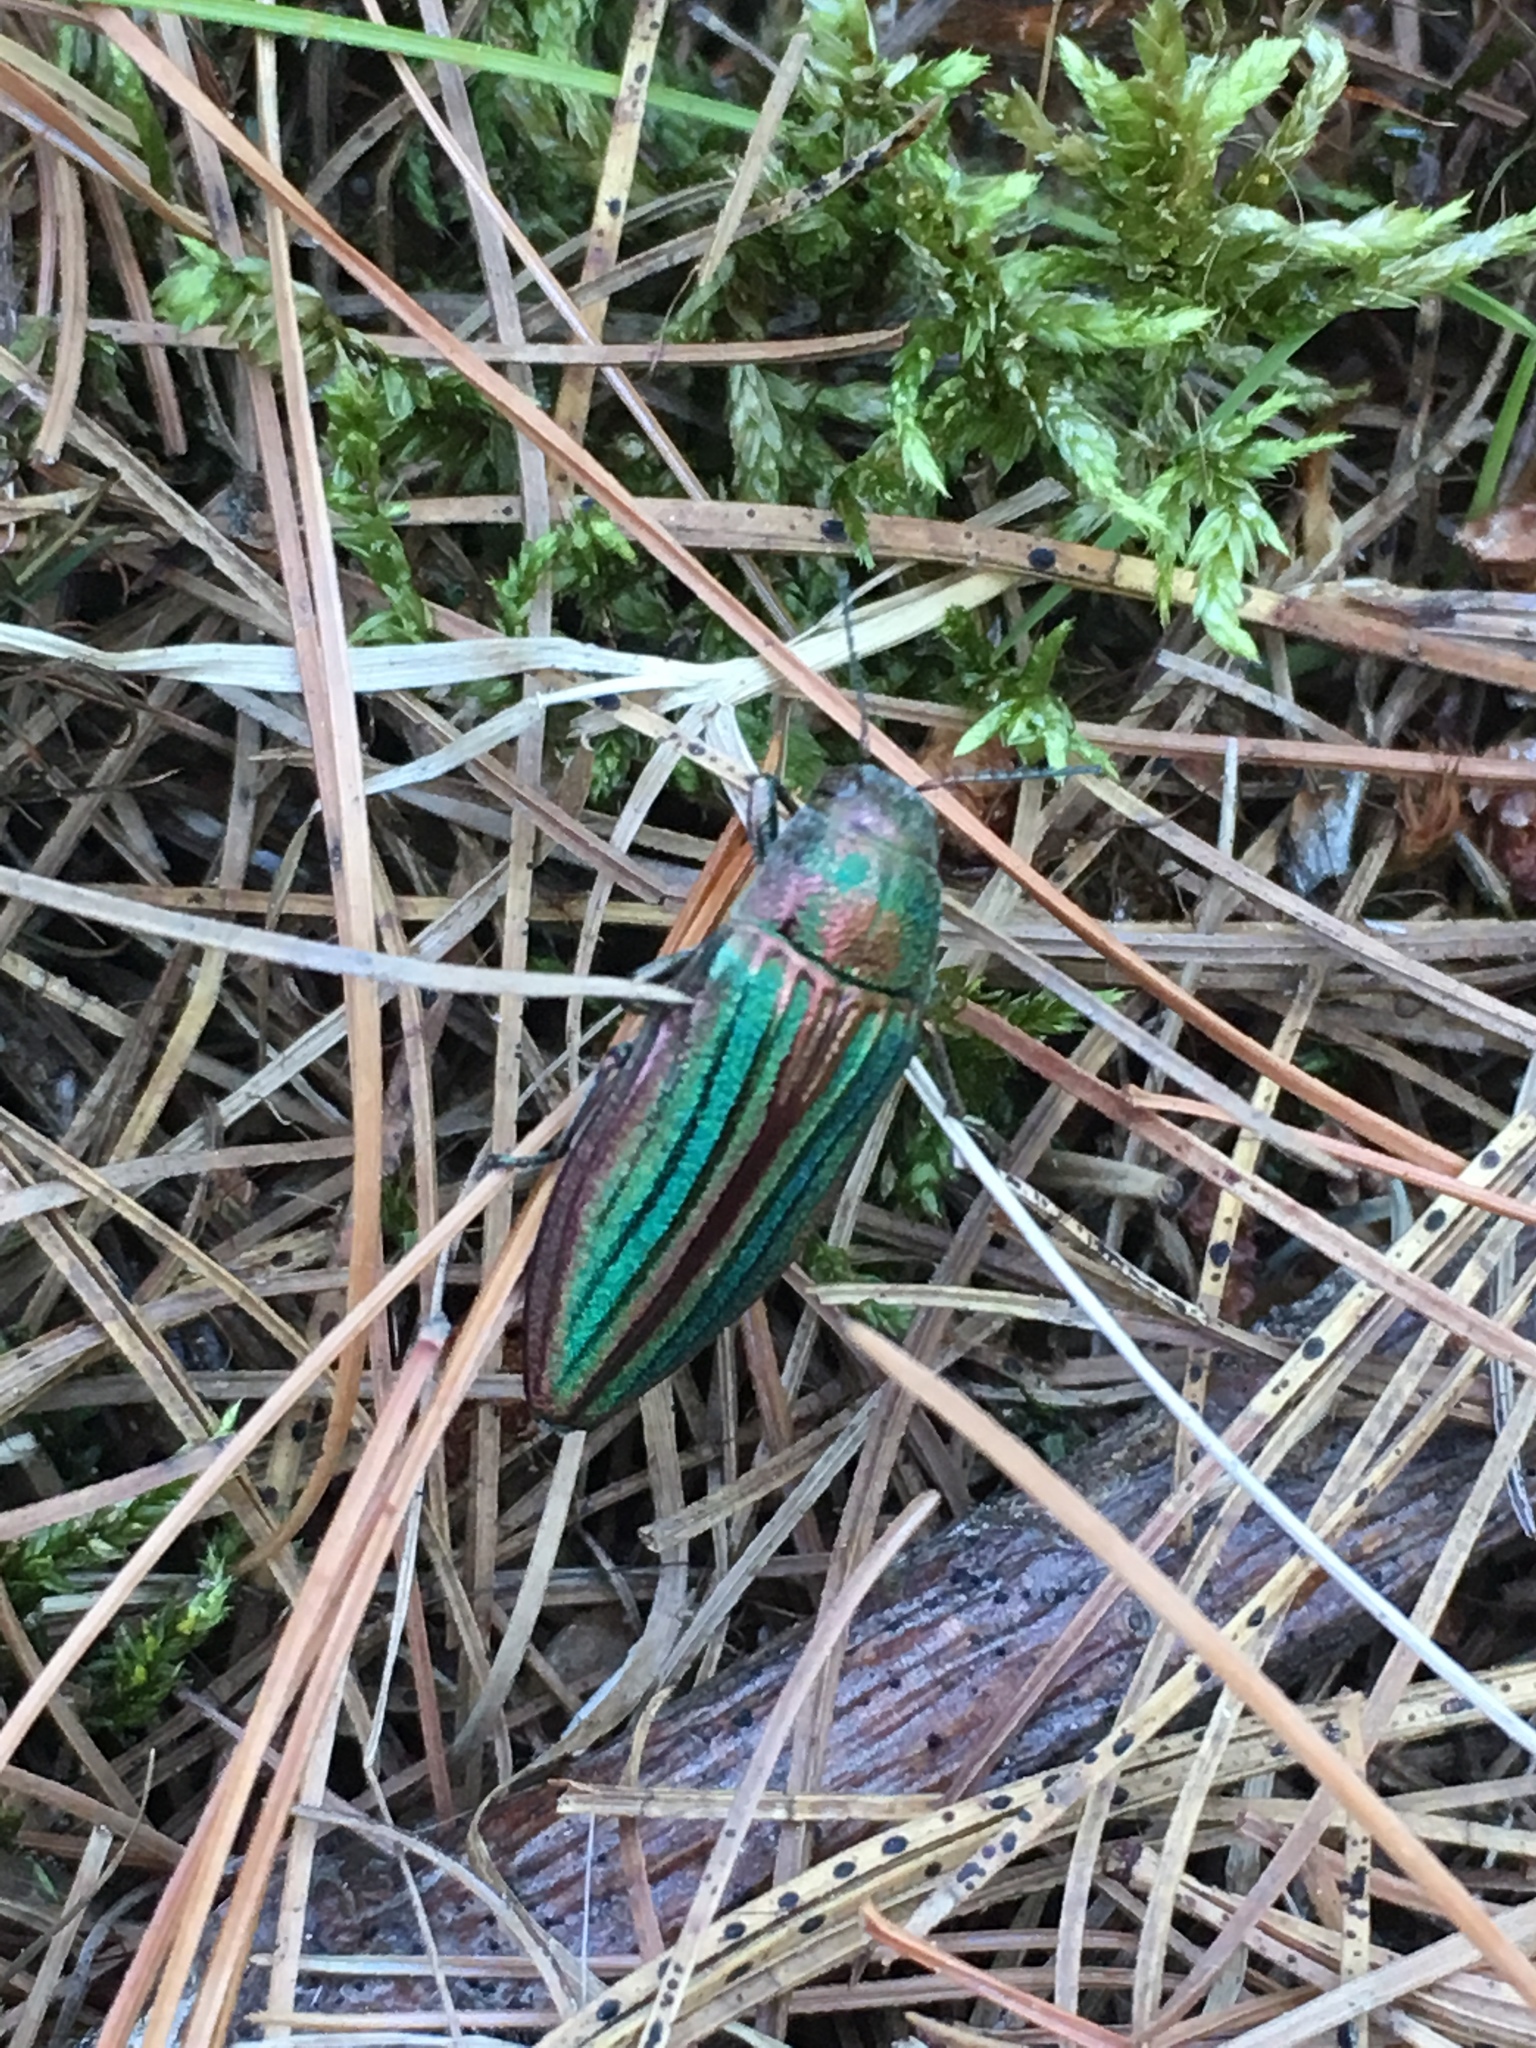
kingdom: Animalia
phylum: Arthropoda
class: Insecta
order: Coleoptera
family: Buprestidae
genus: Buprestis
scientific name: Buprestis striata
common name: Striated jewel beetle
